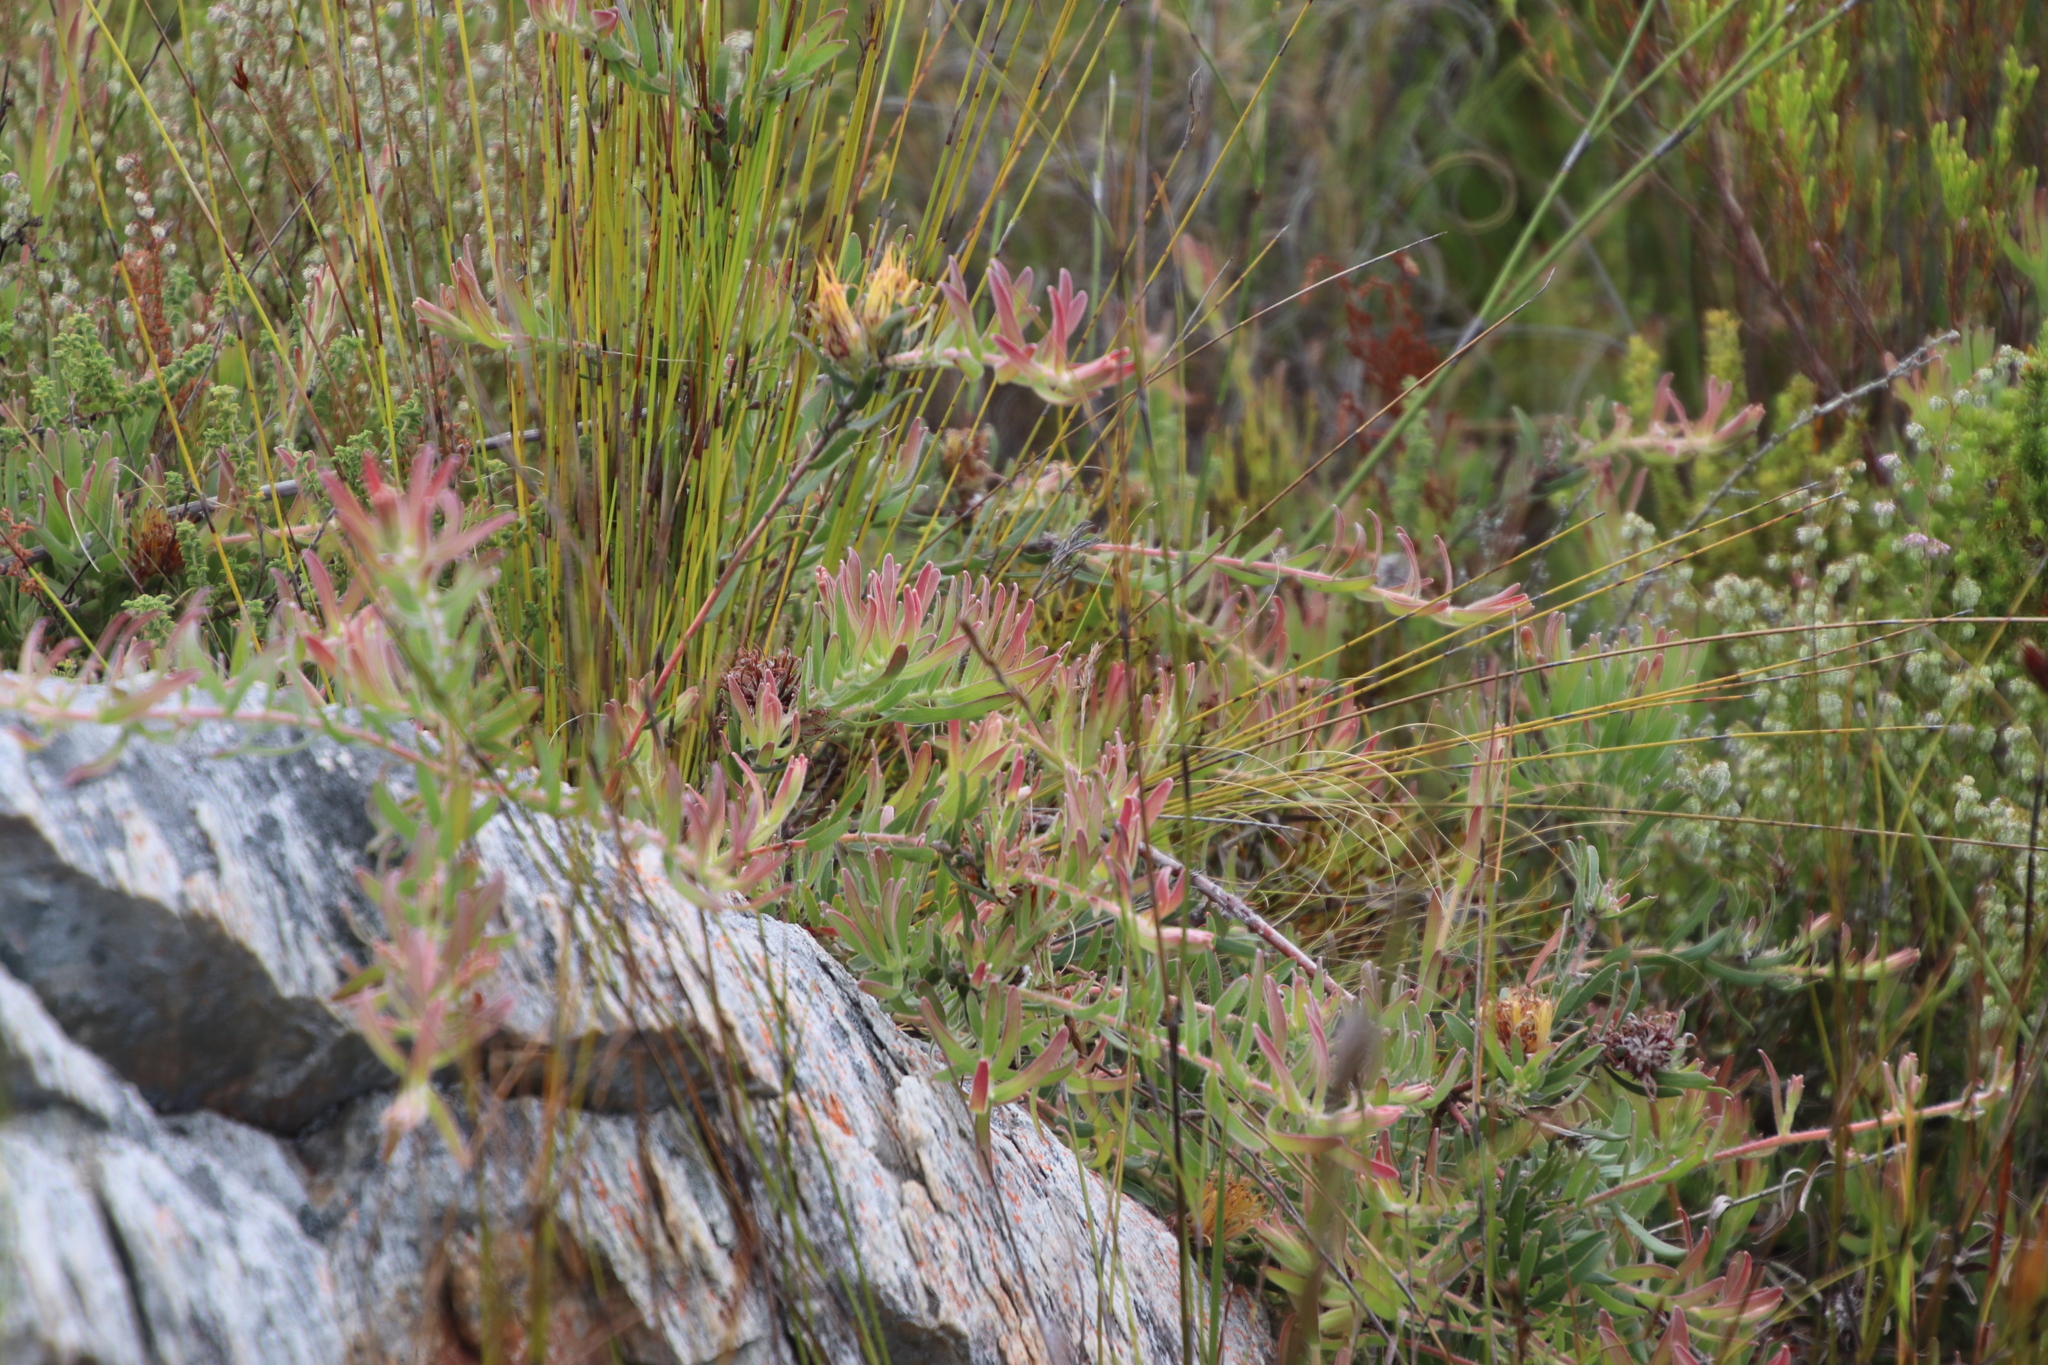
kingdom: Plantae
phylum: Tracheophyta
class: Magnoliopsida
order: Proteales
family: Proteaceae
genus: Leucospermum
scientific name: Leucospermum gracile
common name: Hermanus pincushion
